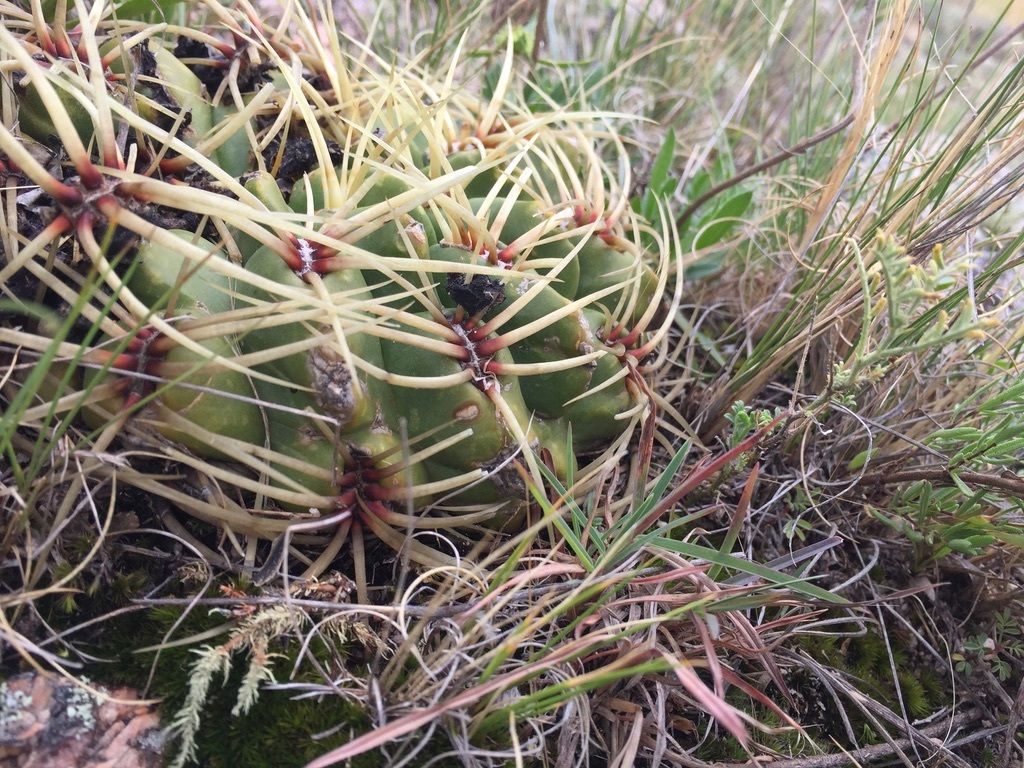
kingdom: Plantae
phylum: Tracheophyta
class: Magnoliopsida
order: Caryophyllales
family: Cactaceae
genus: Gymnocalycium
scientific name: Gymnocalycium monvillei
